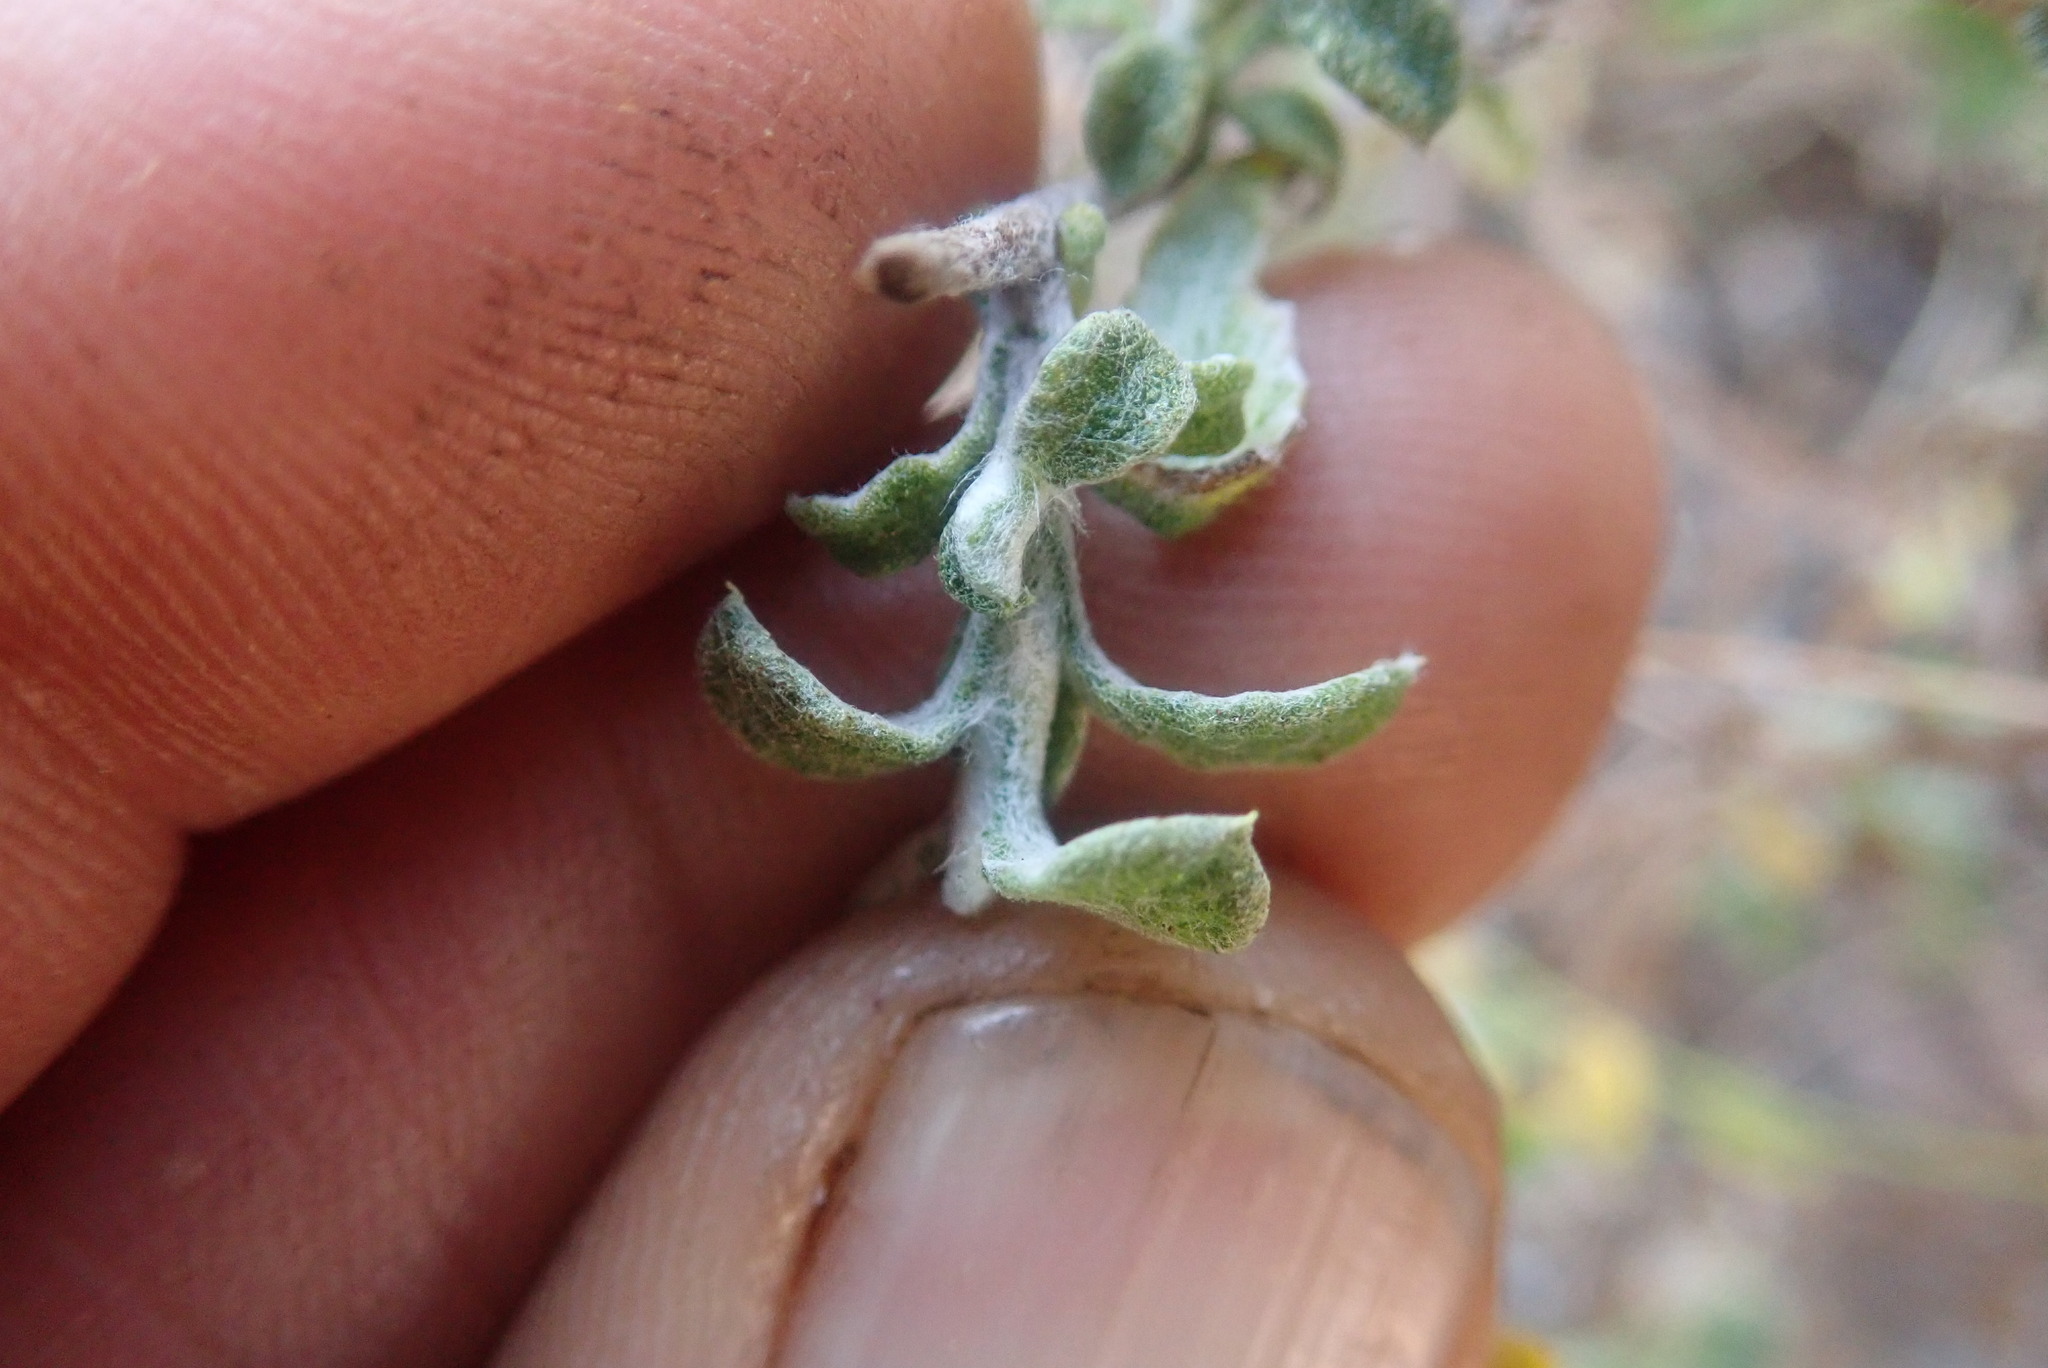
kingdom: Plantae
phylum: Tracheophyta
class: Magnoliopsida
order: Asterales
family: Asteraceae
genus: Helichrysum
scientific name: Helichrysum lepidissimum
